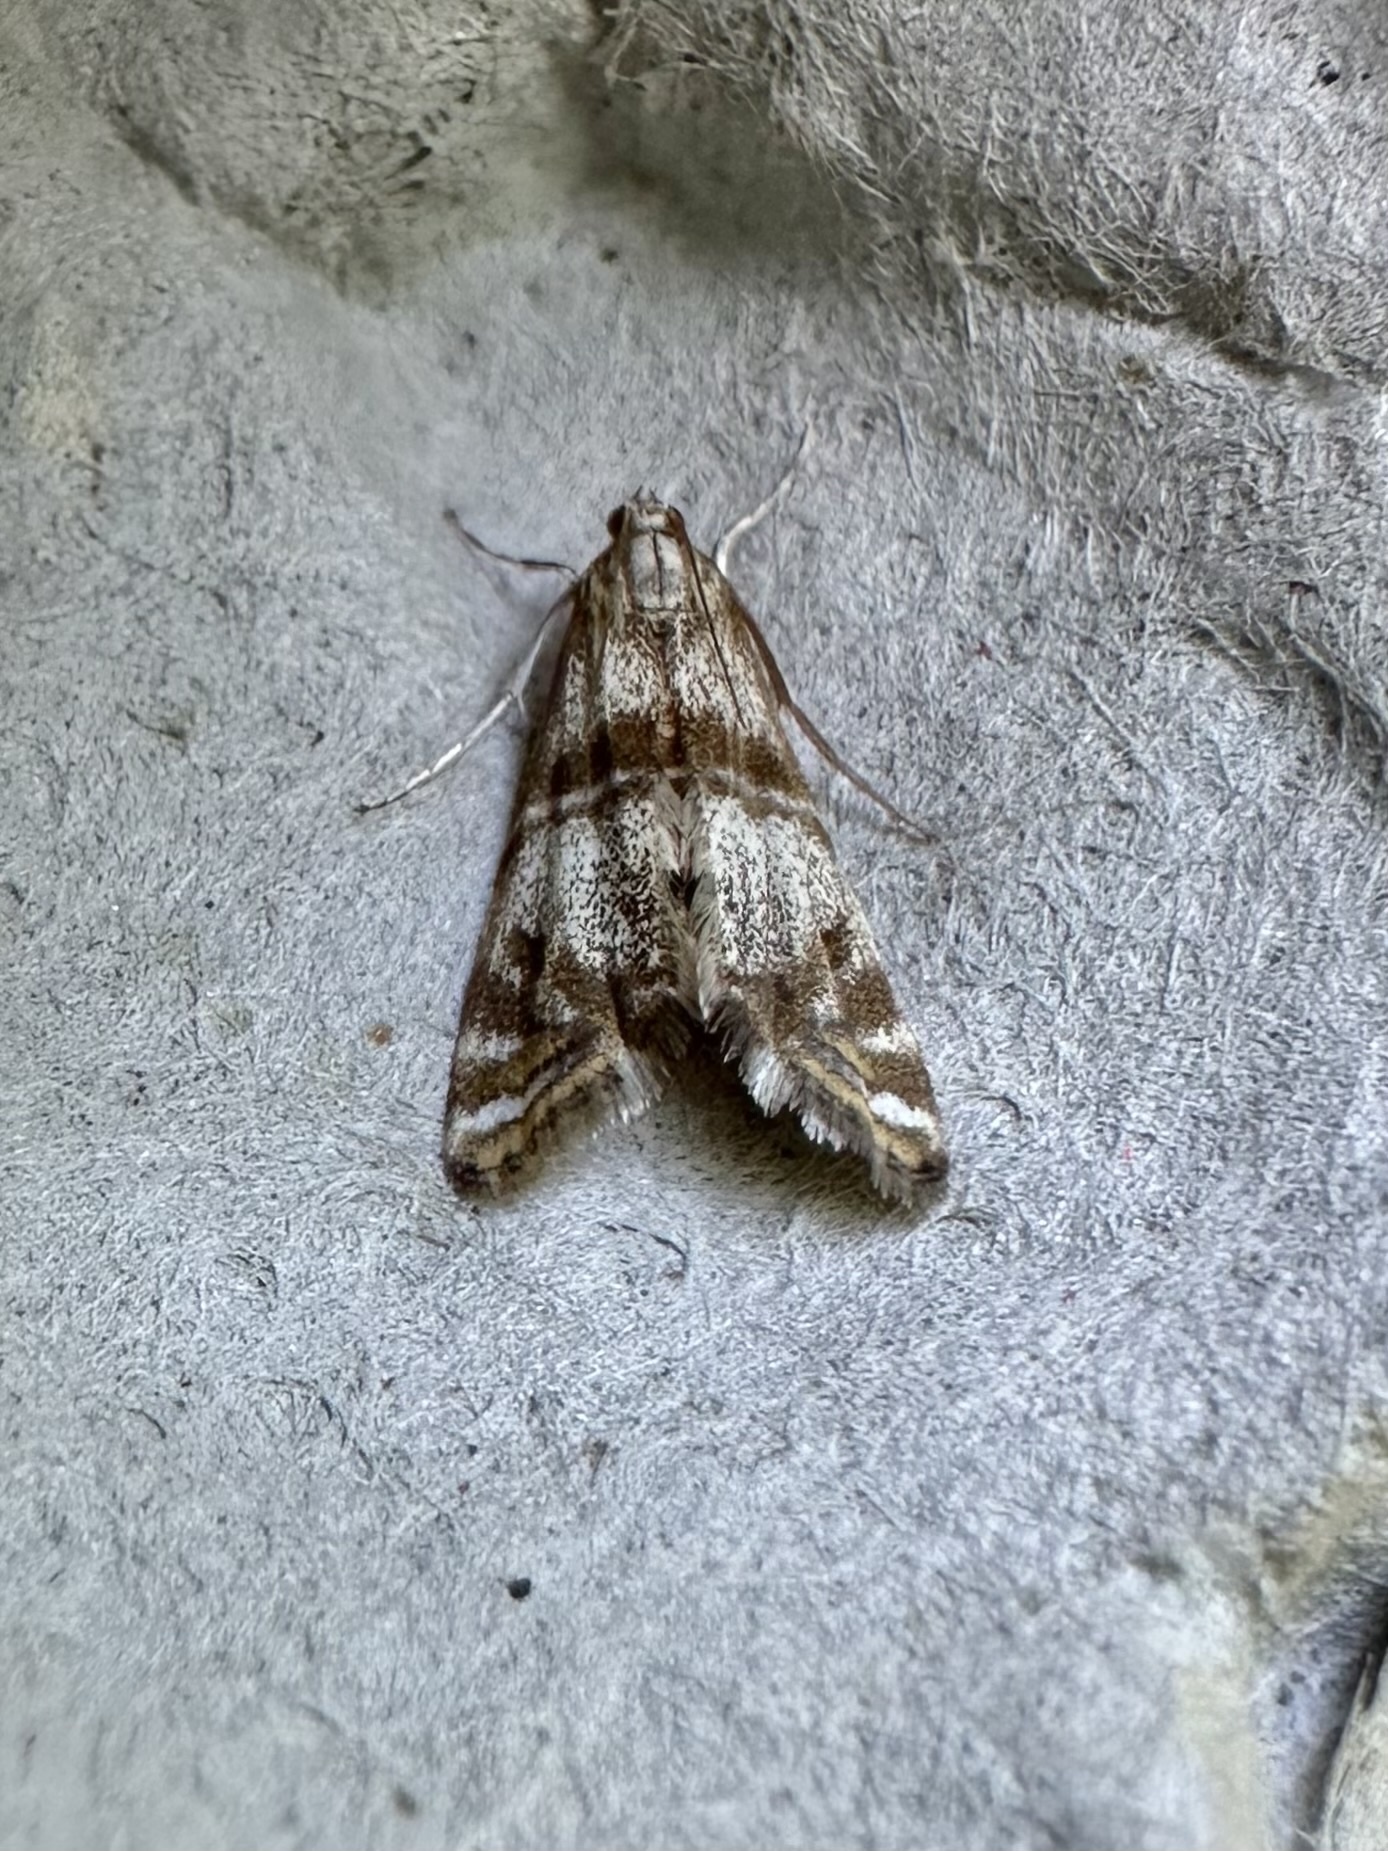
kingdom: Animalia
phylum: Arthropoda
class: Insecta
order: Lepidoptera
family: Crambidae
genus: Petrophila
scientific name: Petrophila bifascialis
